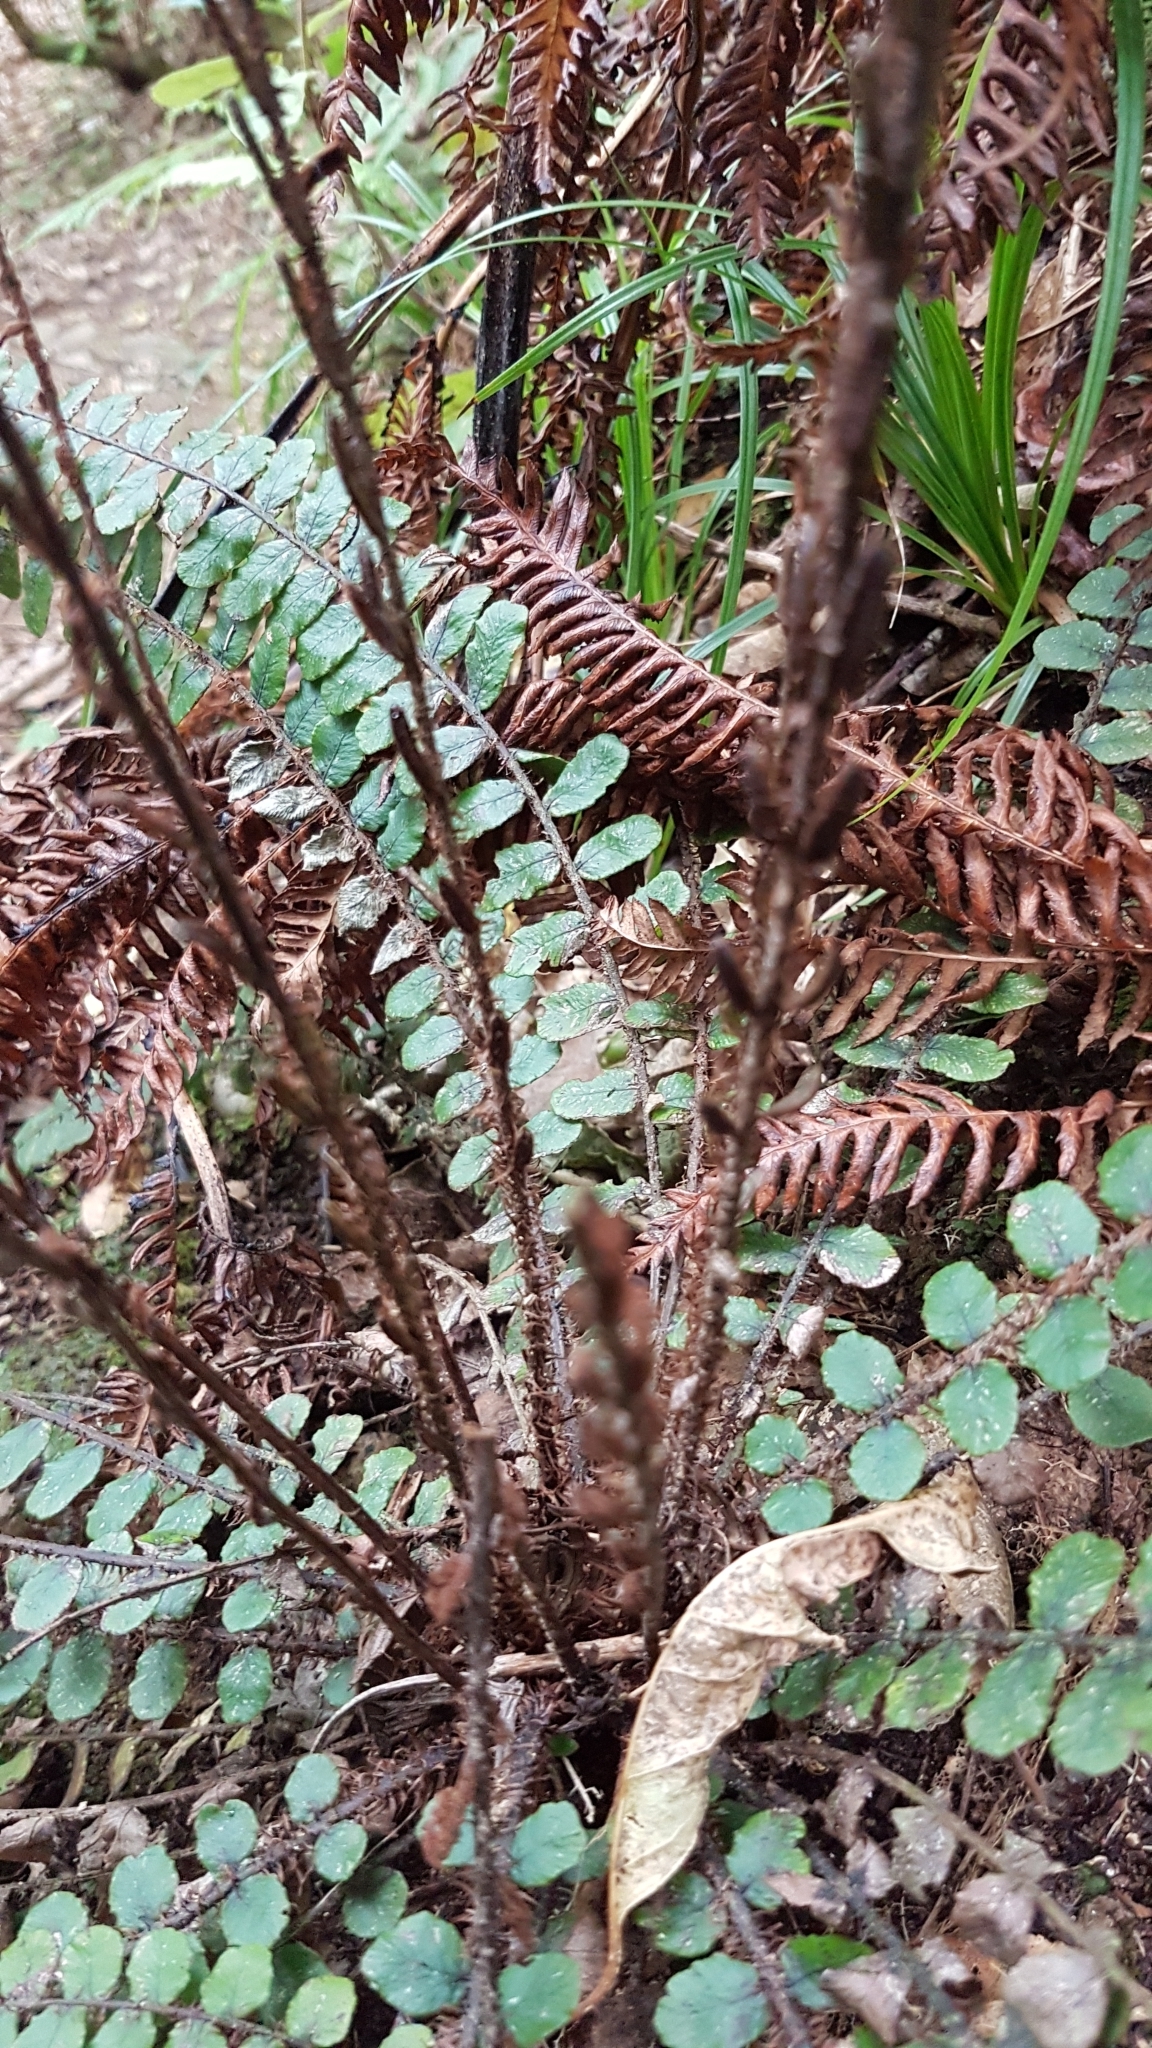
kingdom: Plantae
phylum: Tracheophyta
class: Polypodiopsida
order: Polypodiales
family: Blechnaceae
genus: Cranfillia
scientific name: Cranfillia fluviatilis
